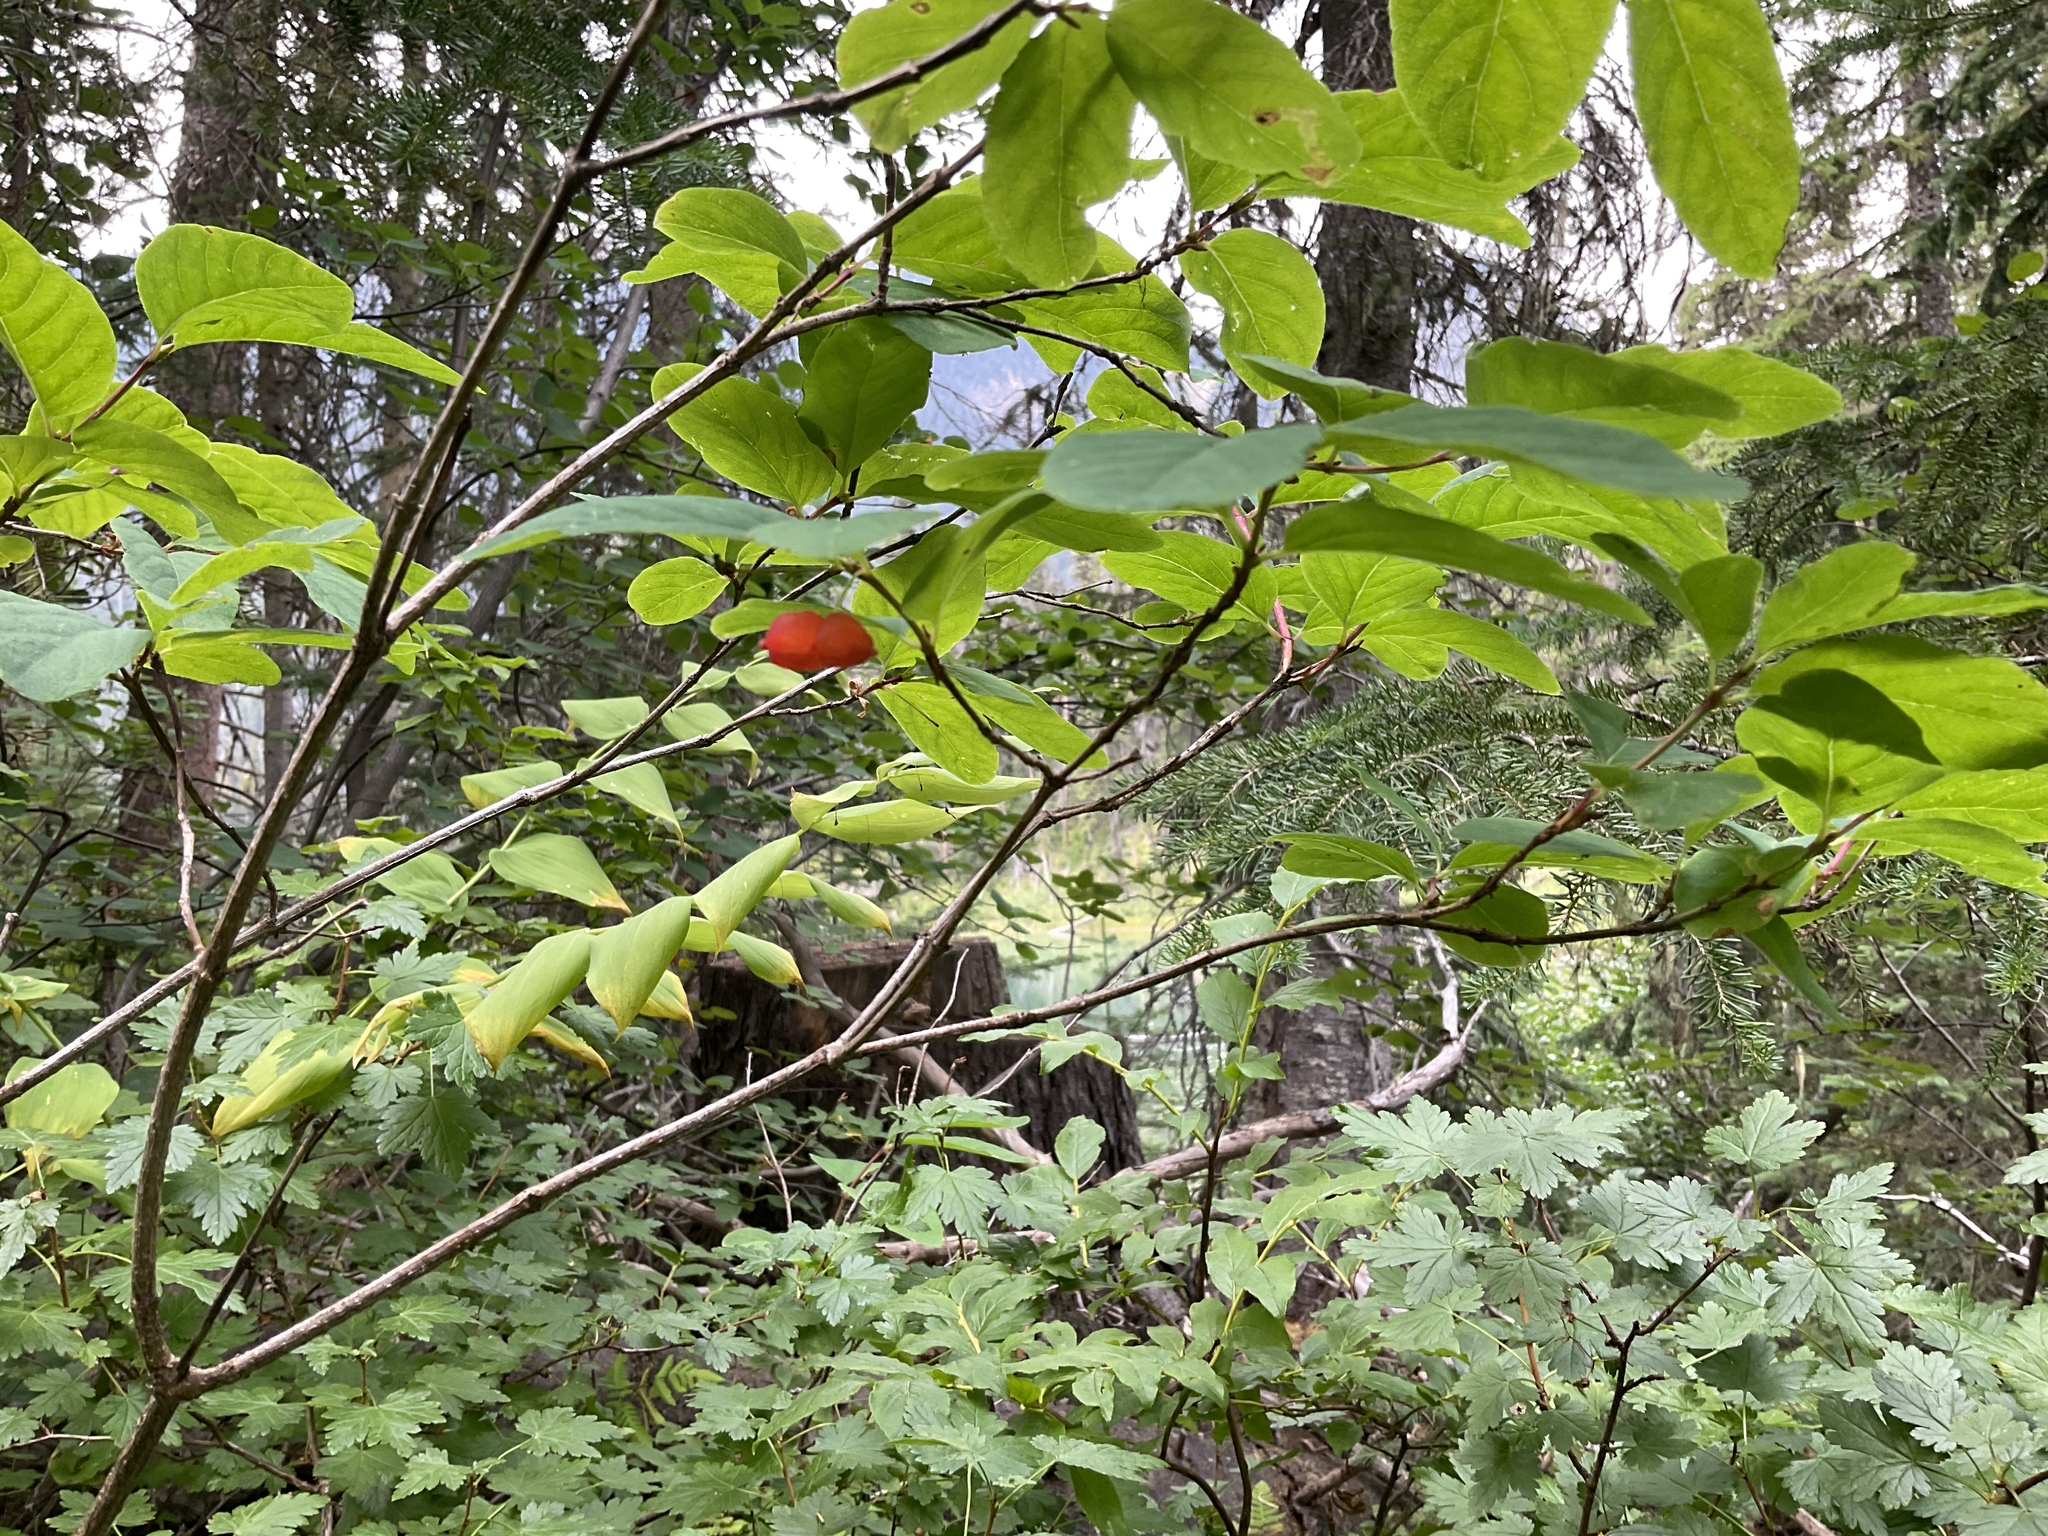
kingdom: Plantae
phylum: Tracheophyta
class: Magnoliopsida
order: Dipsacales
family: Caprifoliaceae
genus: Lonicera
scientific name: Lonicera utahensis
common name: Utah honeysuckle
